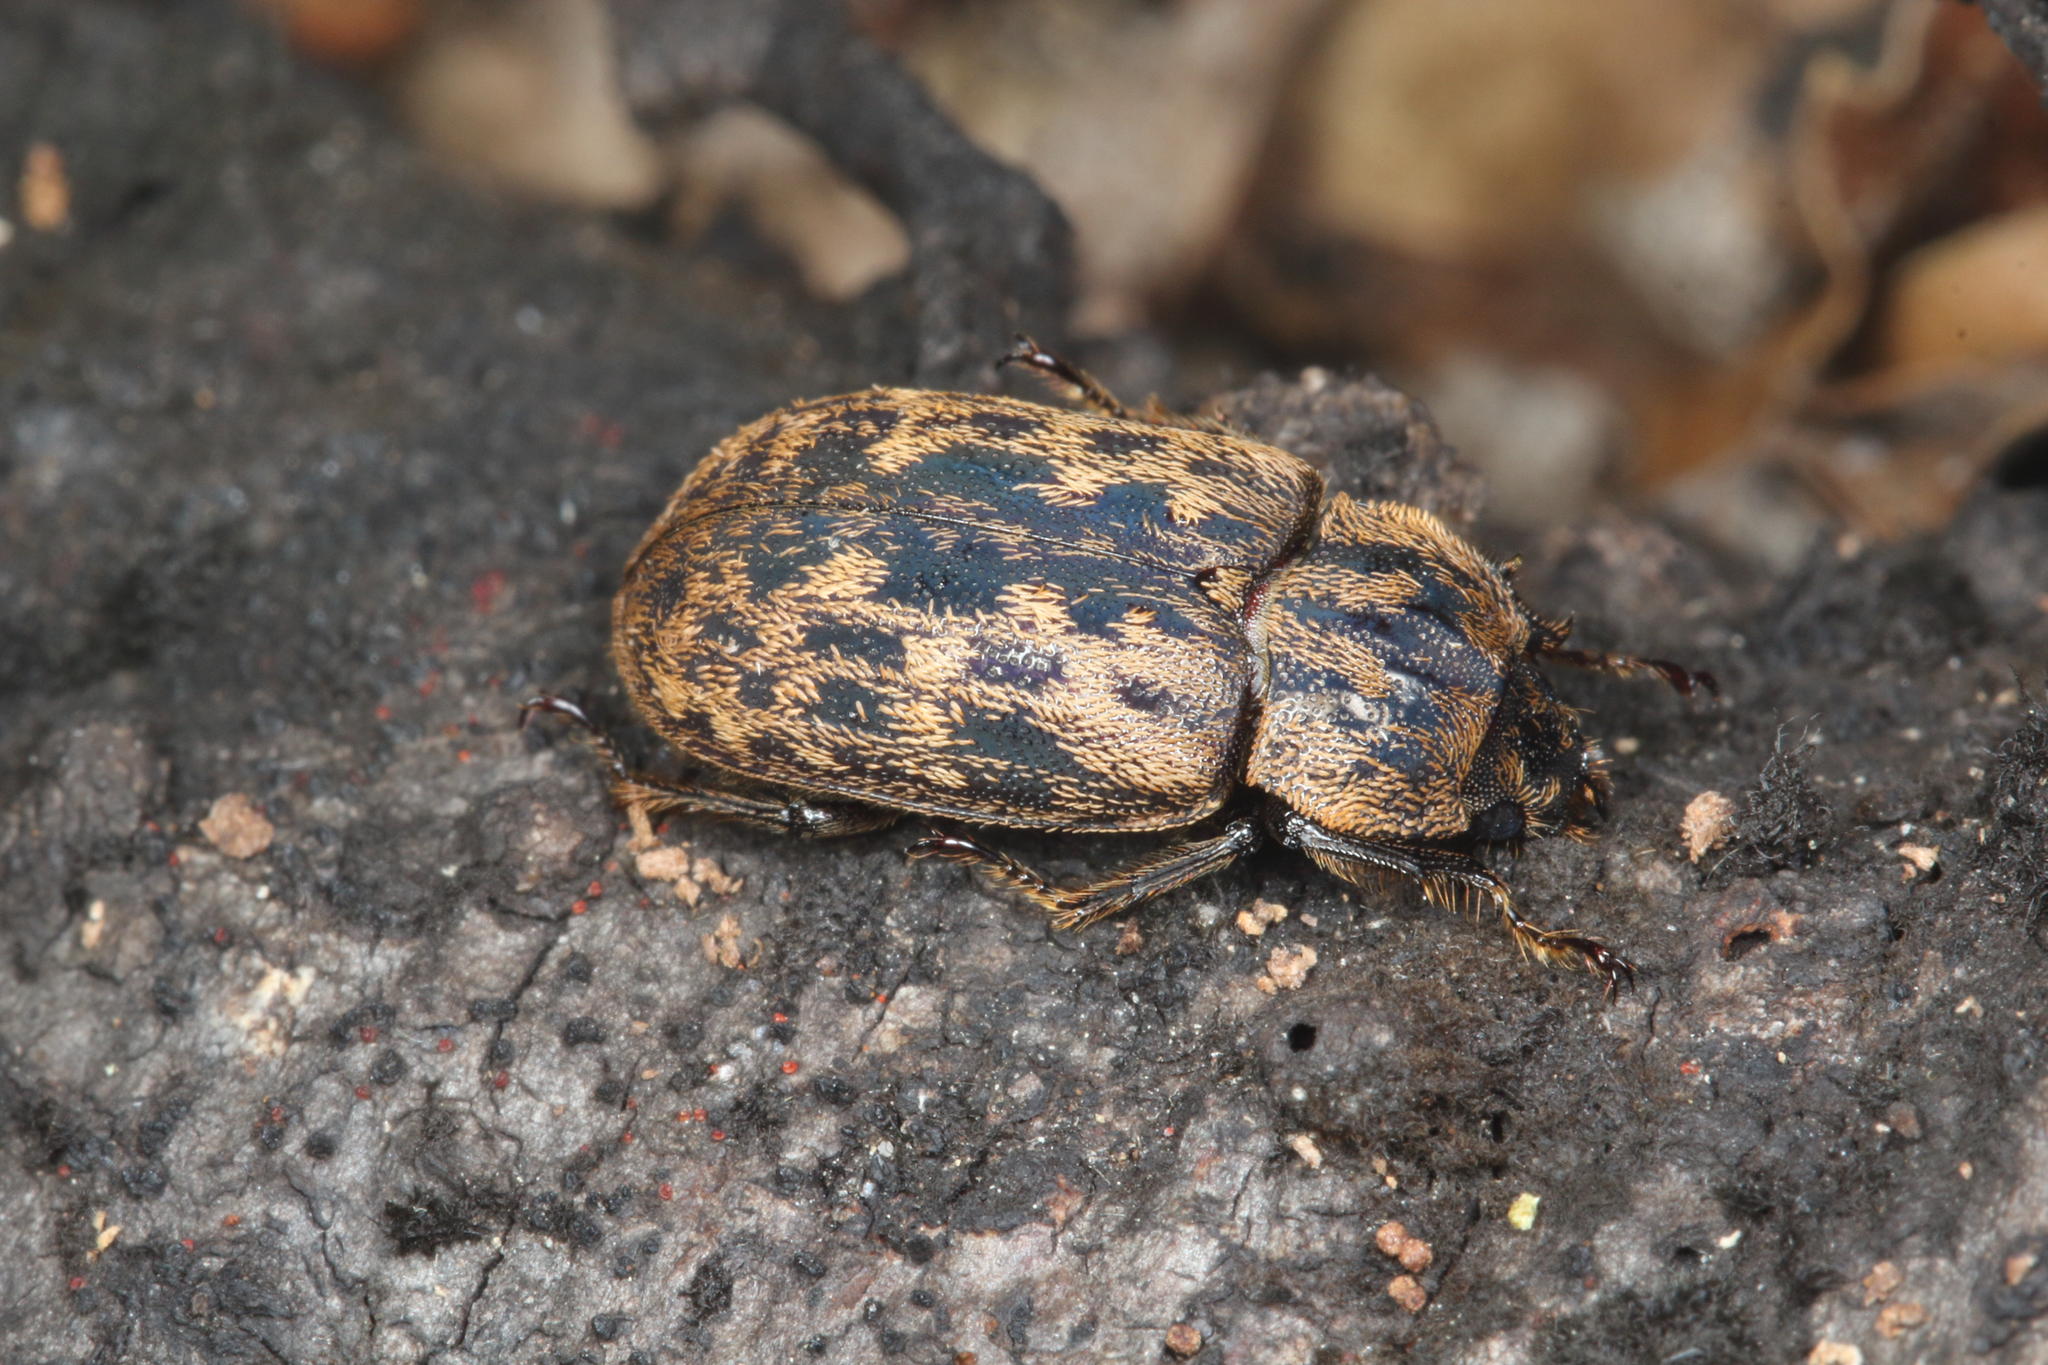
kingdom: Animalia
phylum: Arthropoda
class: Insecta
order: Coleoptera
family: Lucanidae
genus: Mitophyllus
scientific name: Mitophyllus parrianus
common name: Parry's stag beetle
